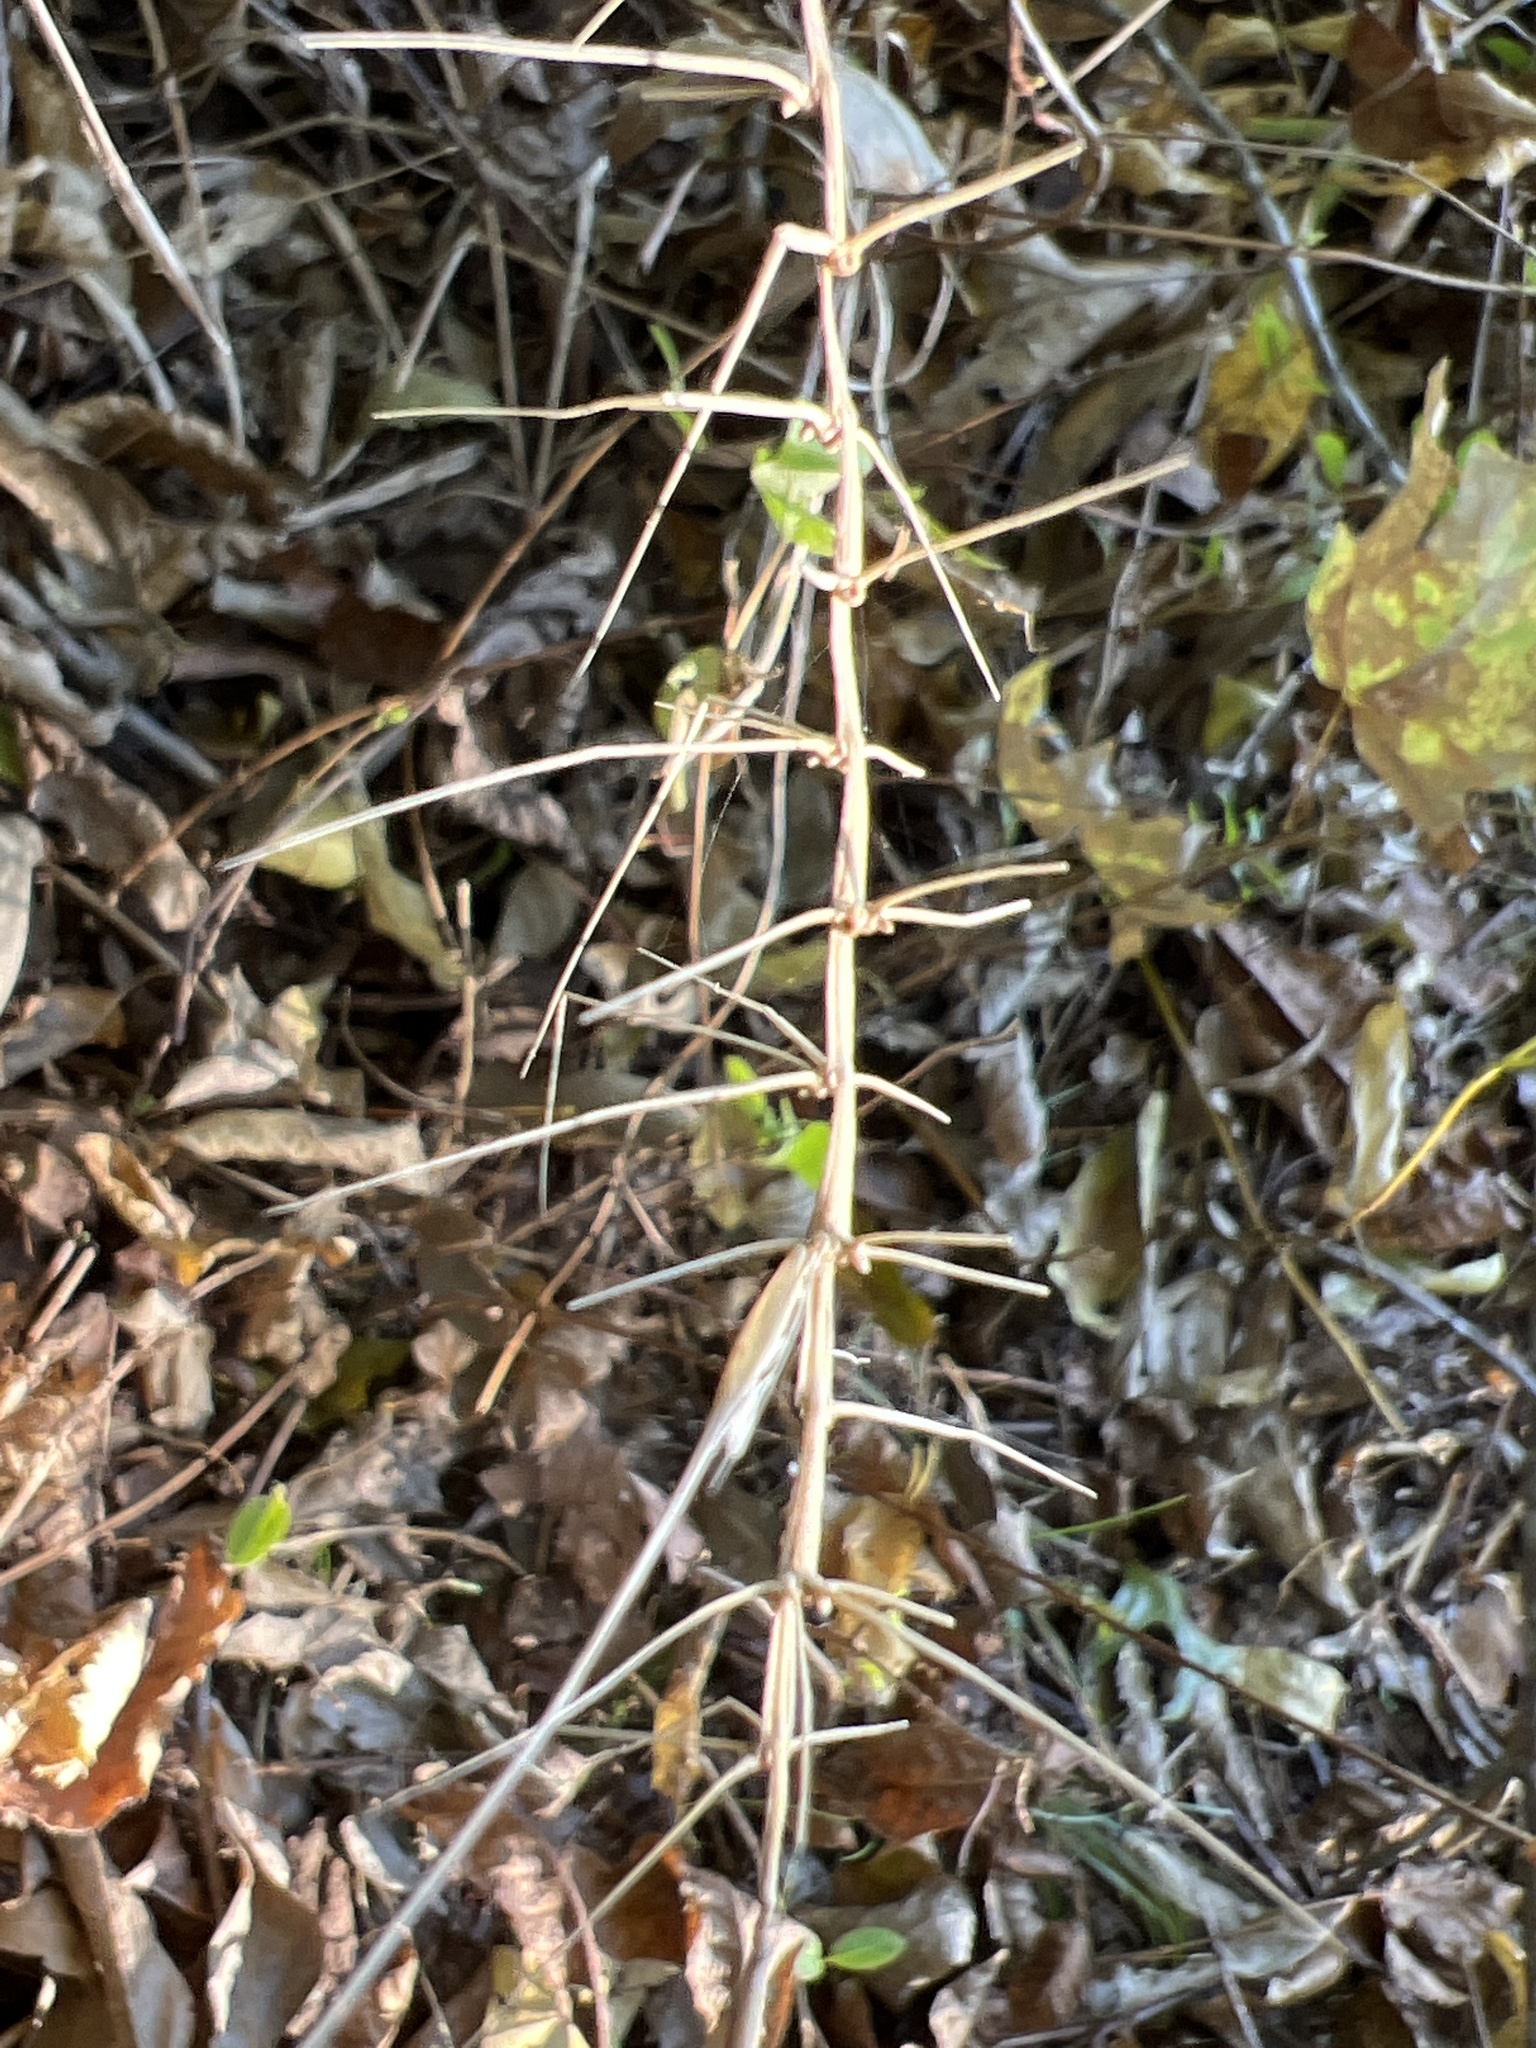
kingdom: Plantae
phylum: Tracheophyta
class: Liliopsida
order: Poales
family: Poaceae
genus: Elymus
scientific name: Elymus hystrix
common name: Bottlebrush grass
